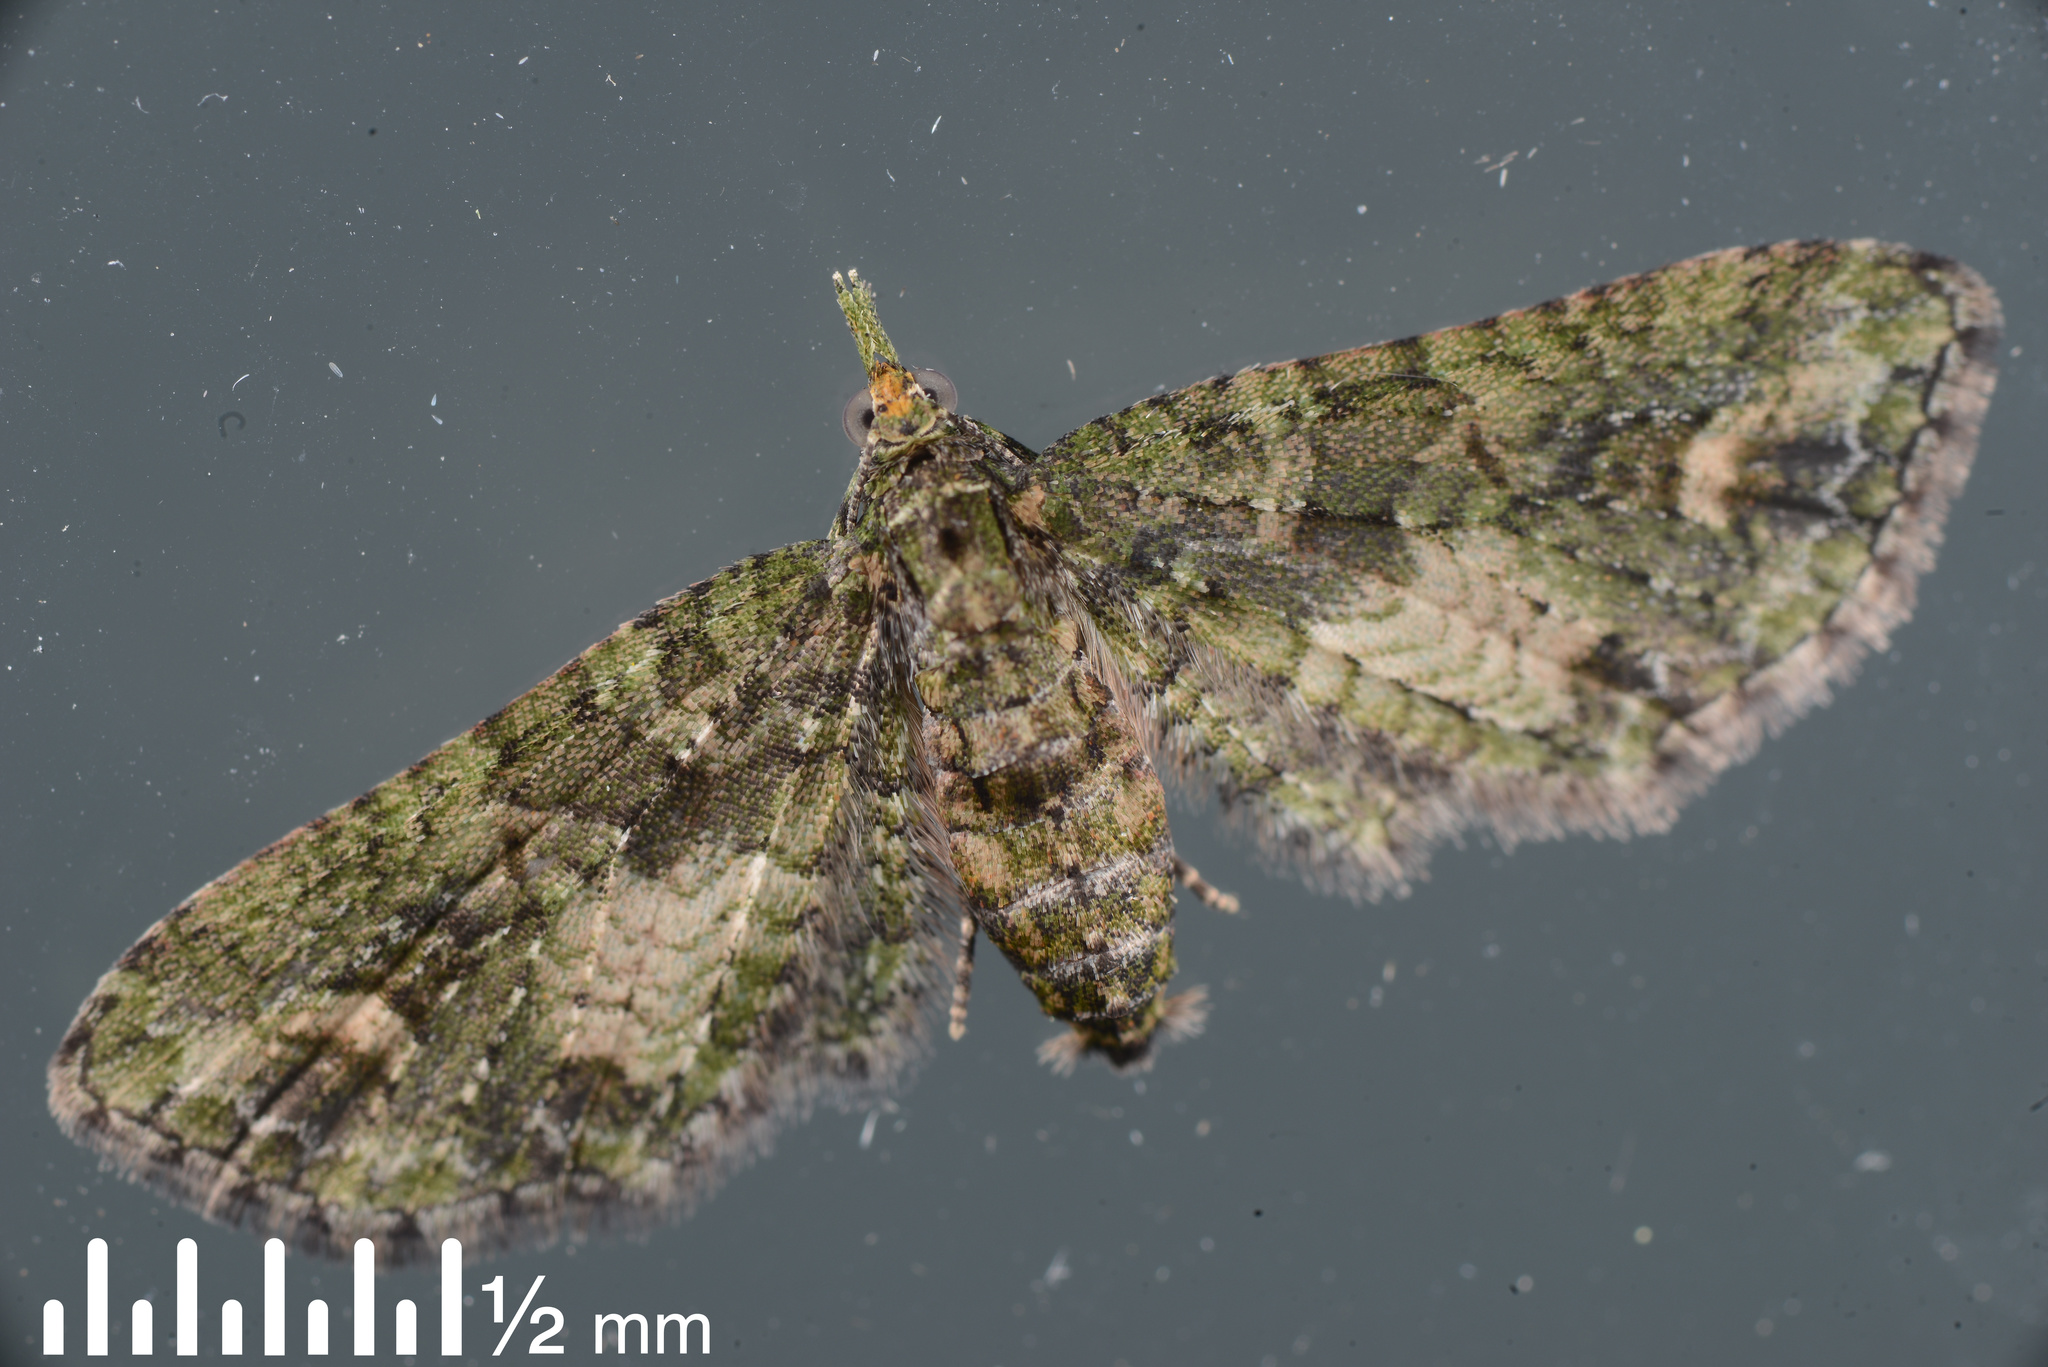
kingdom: Animalia
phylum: Arthropoda
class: Insecta
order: Lepidoptera
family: Geometridae
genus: Idaea
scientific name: Idaea mutanda
